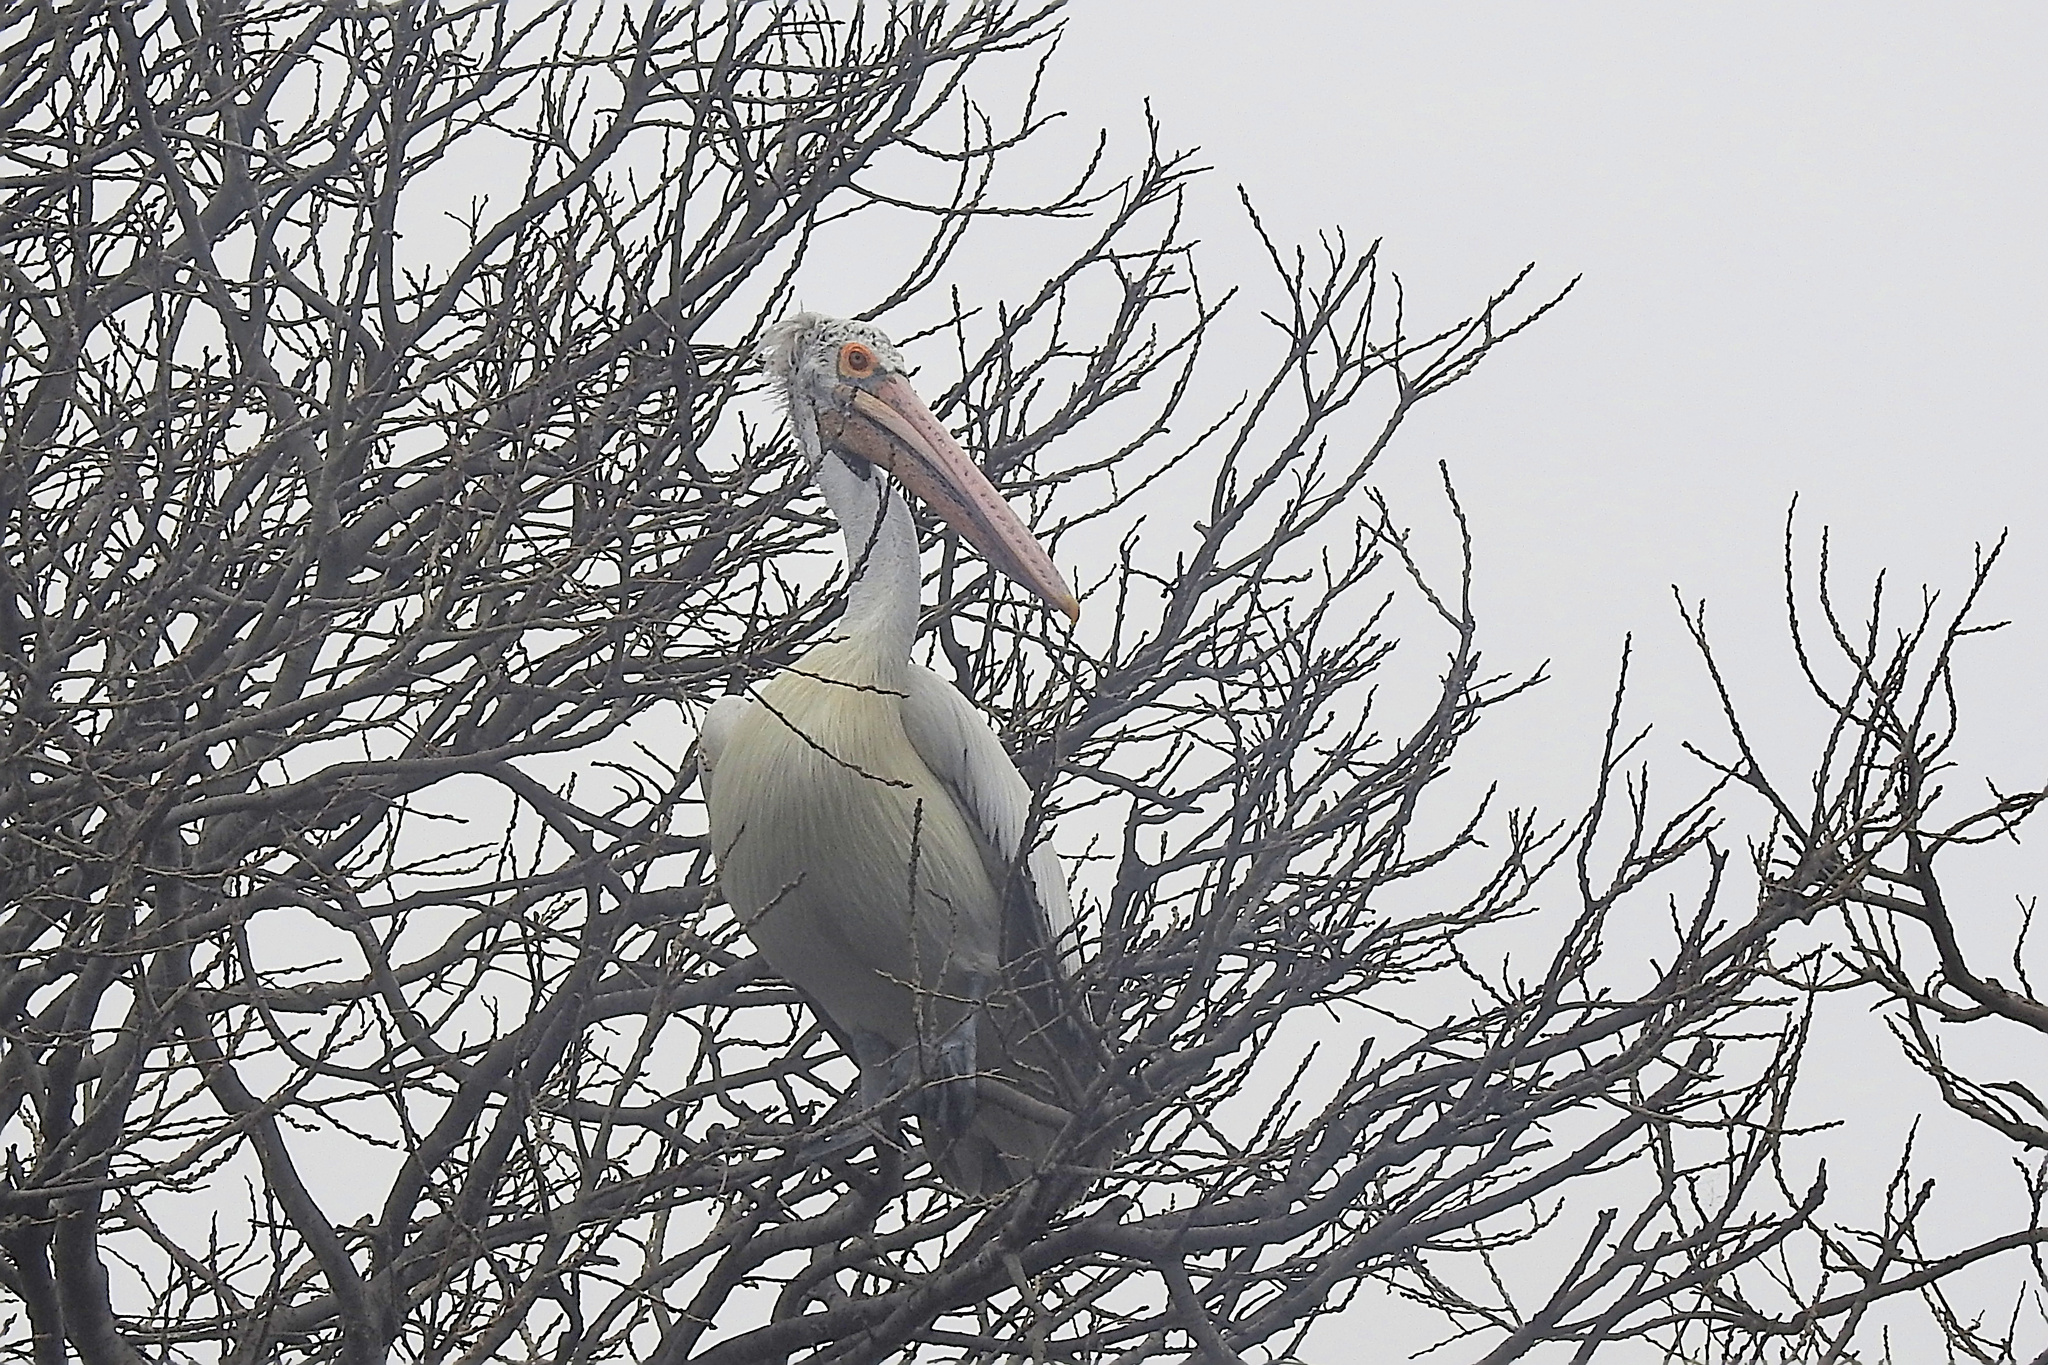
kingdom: Animalia
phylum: Chordata
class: Aves
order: Pelecaniformes
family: Pelecanidae
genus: Pelecanus
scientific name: Pelecanus philippensis
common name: Spot-billed pelican
